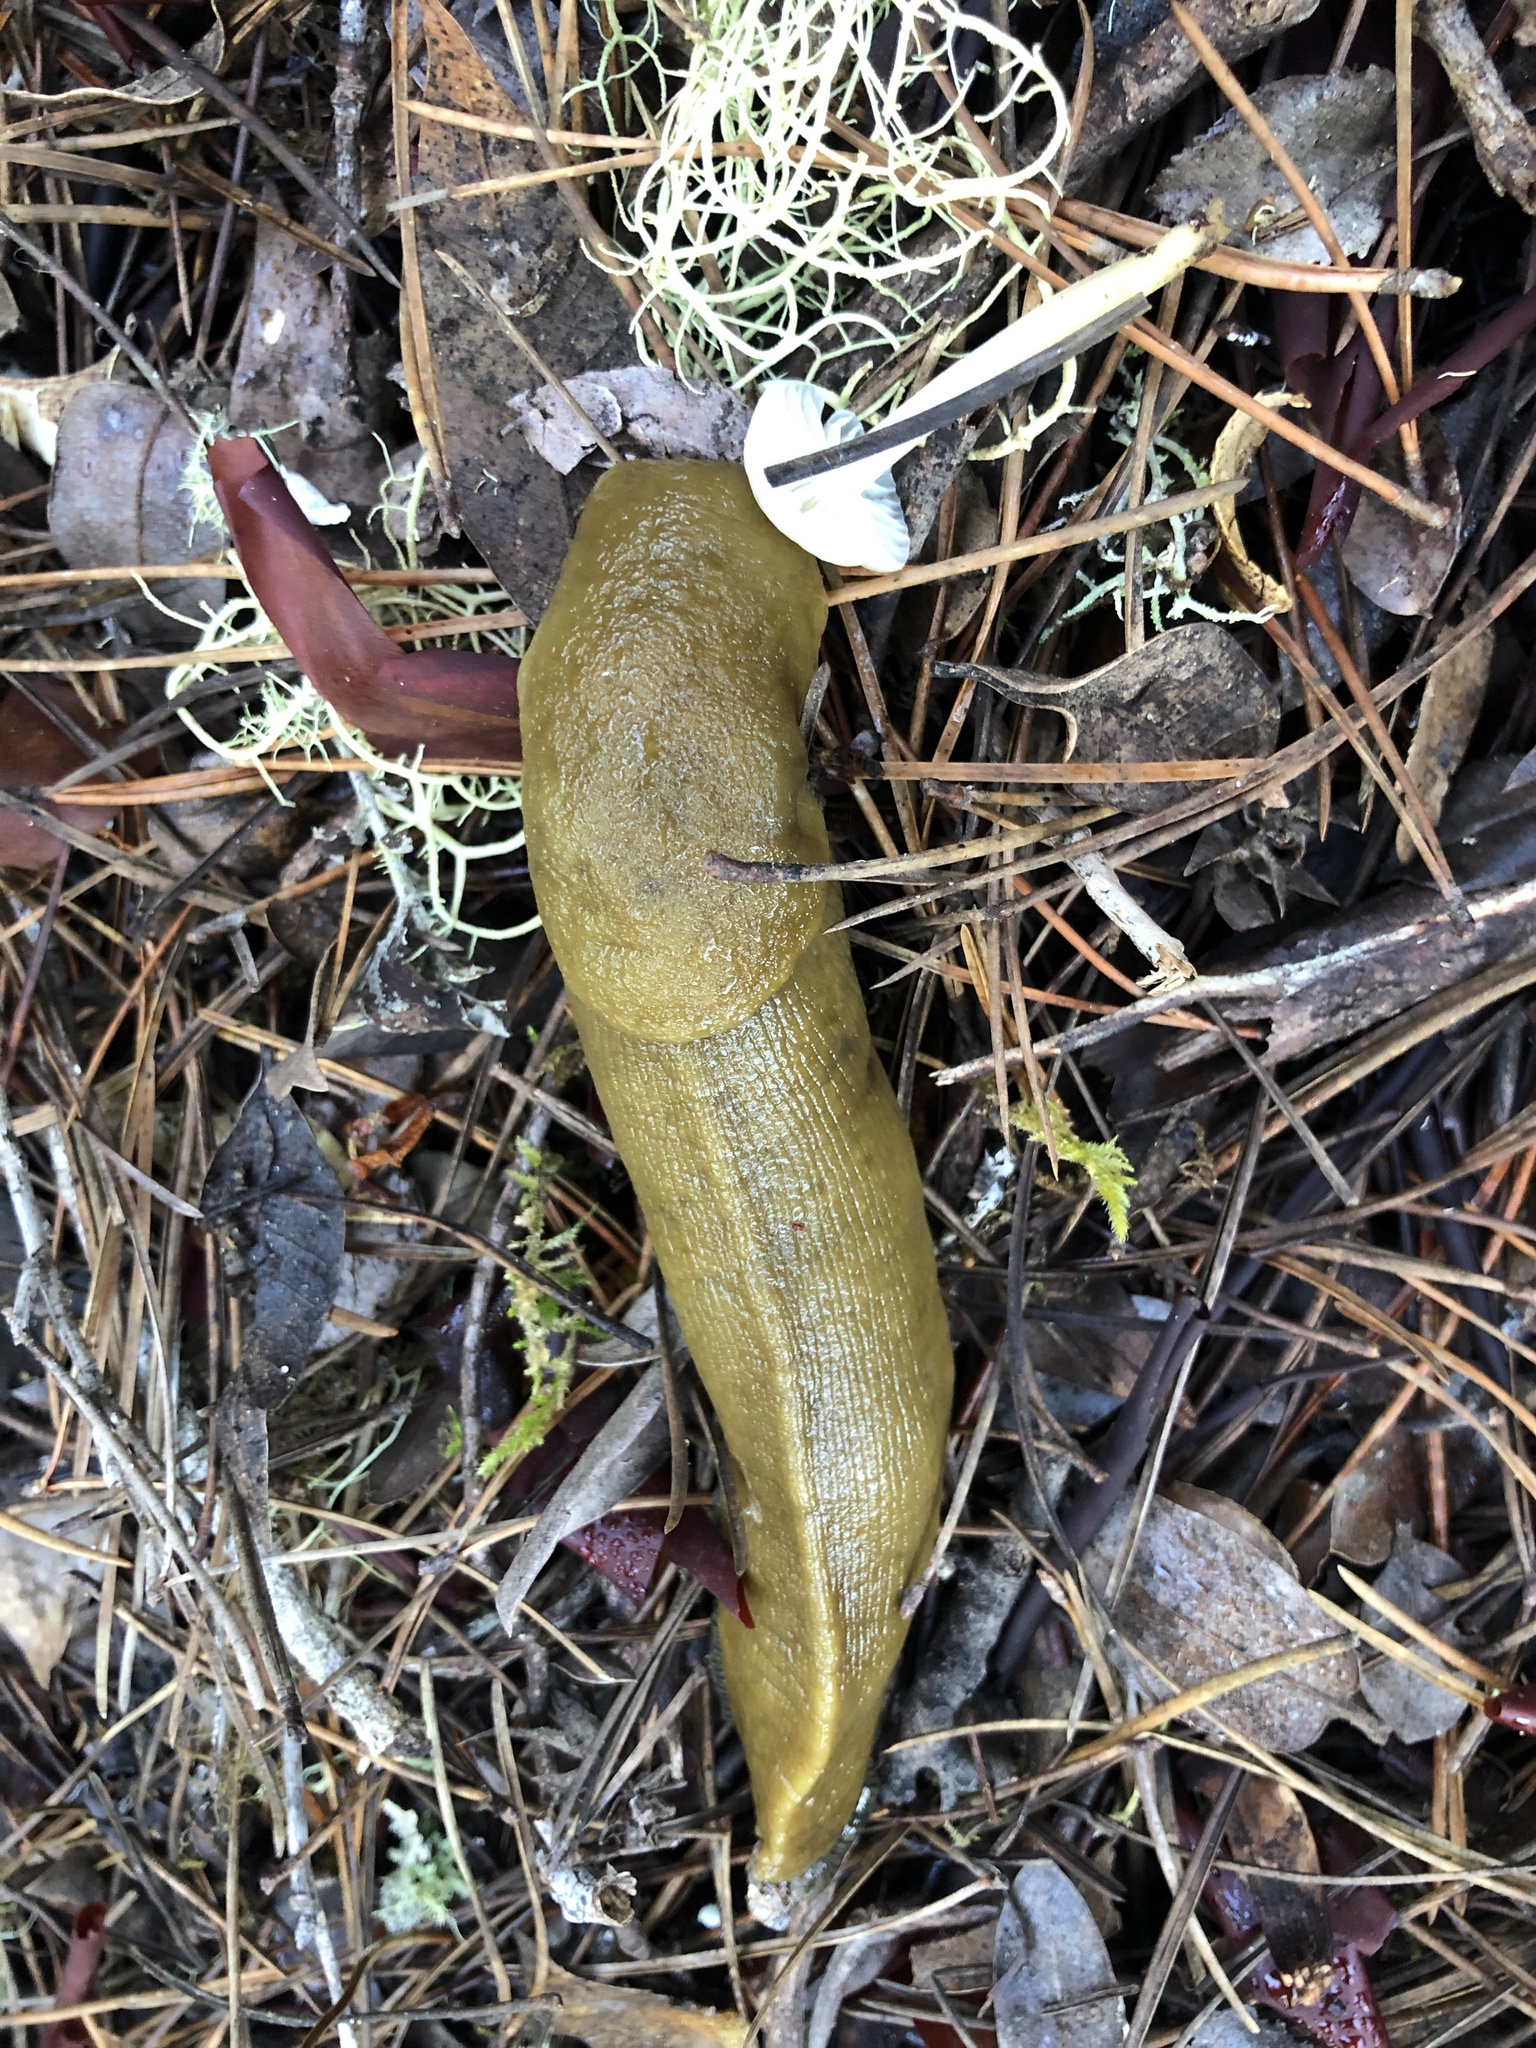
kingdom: Animalia
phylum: Mollusca
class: Gastropoda
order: Stylommatophora
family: Ariolimacidae
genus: Ariolimax
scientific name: Ariolimax buttoni
